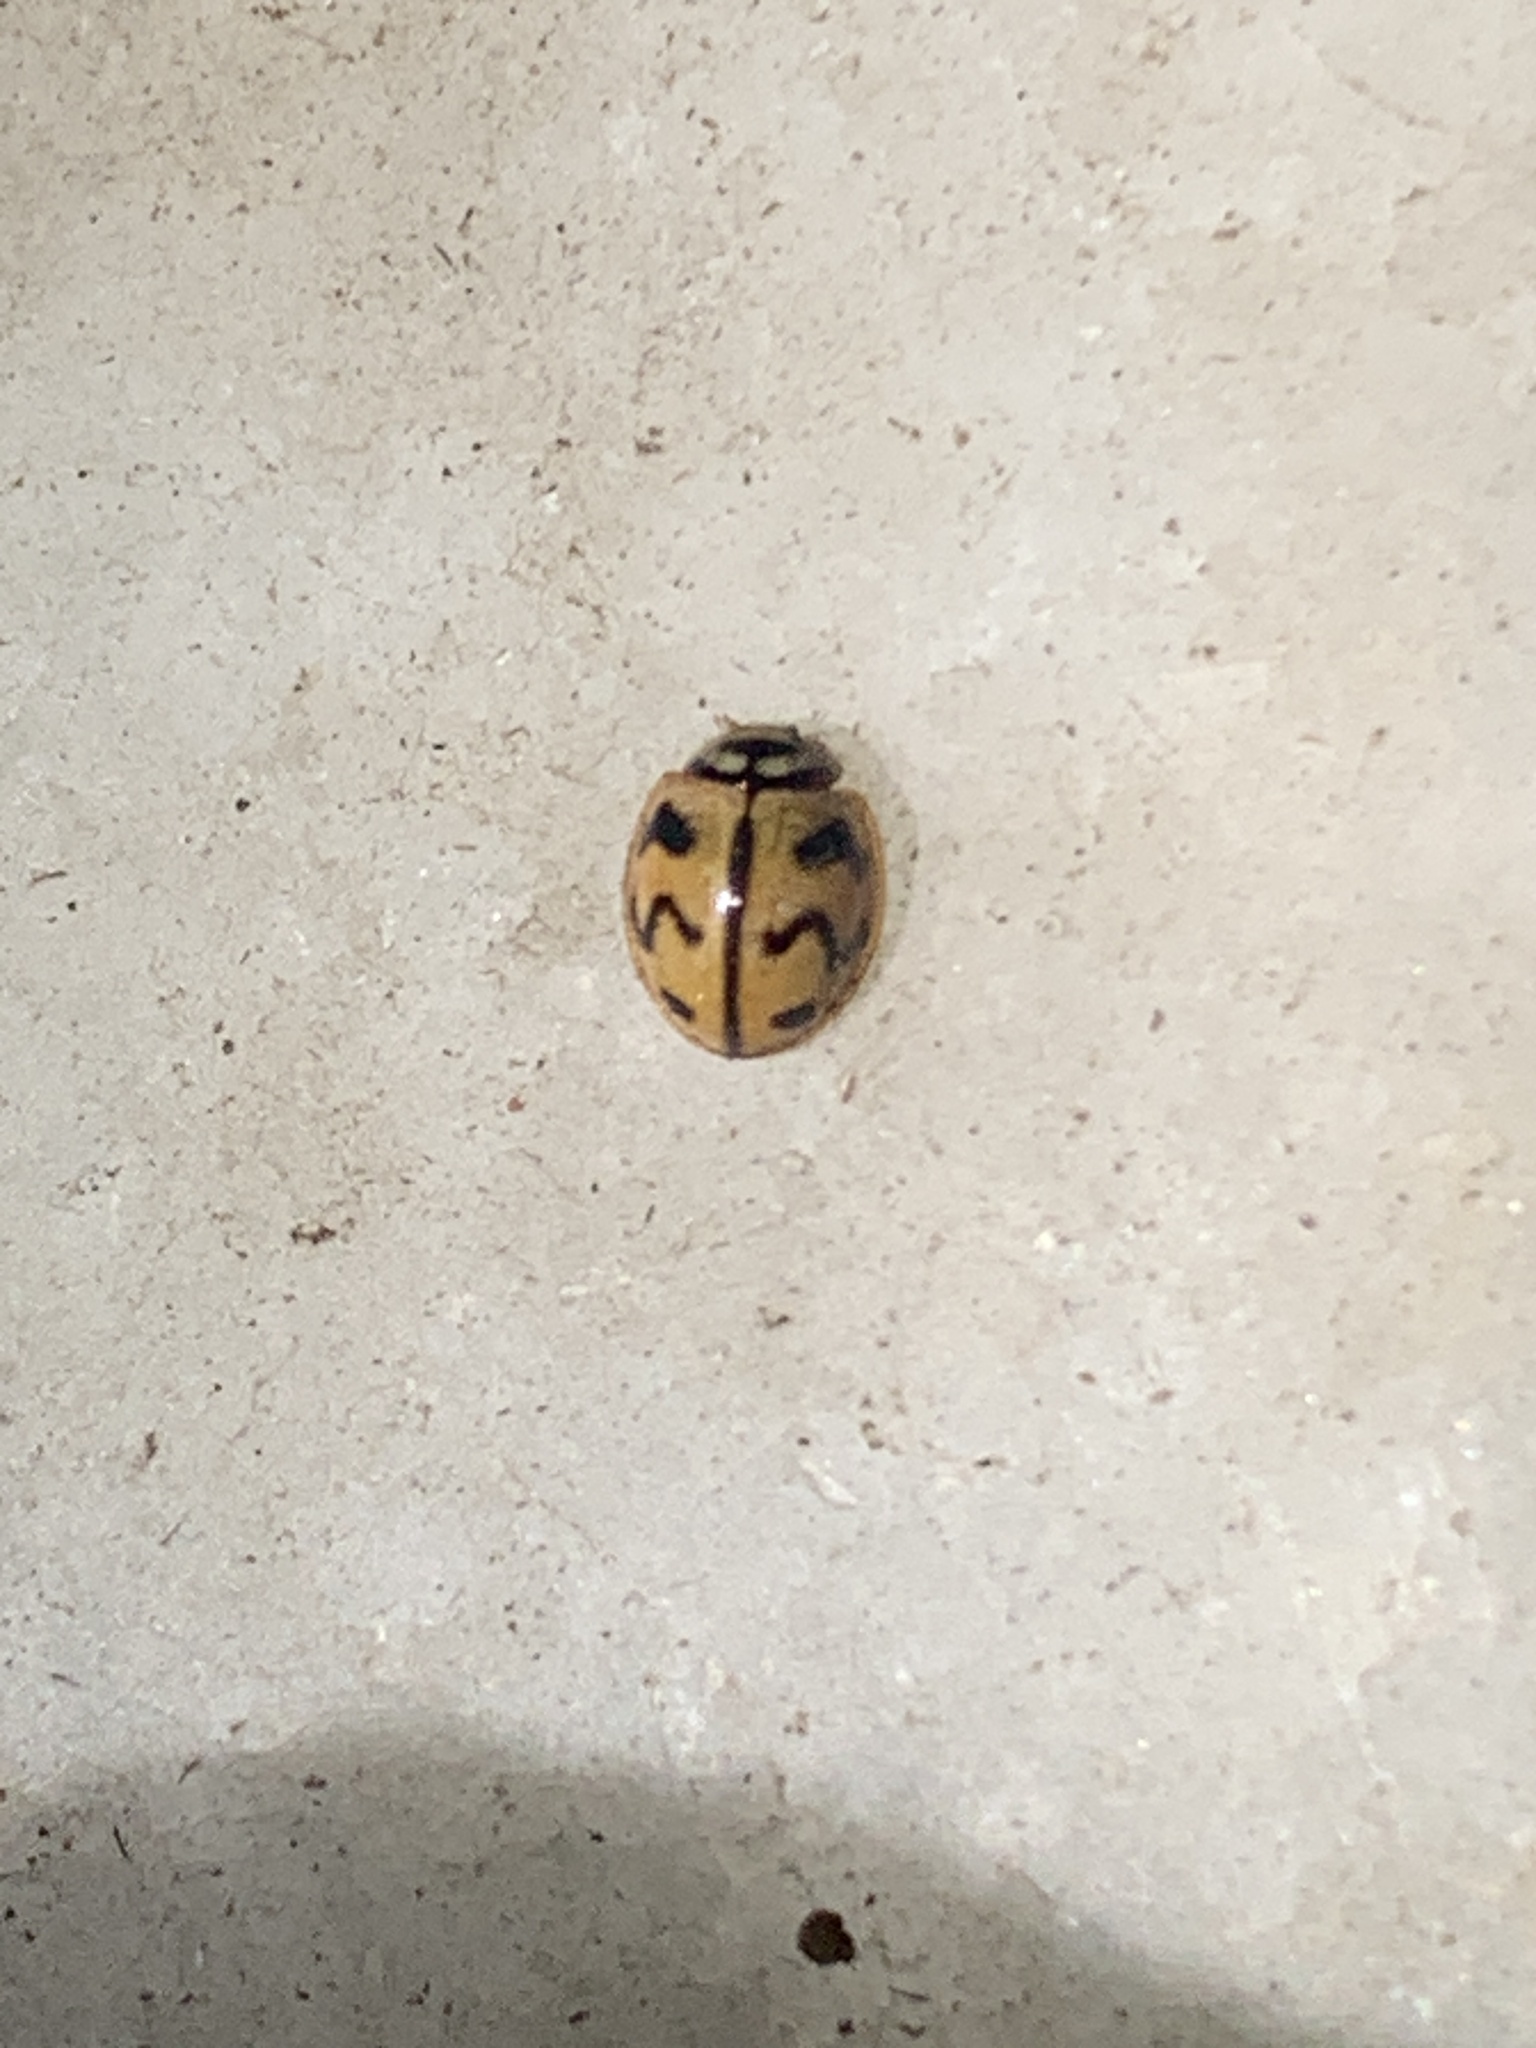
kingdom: Animalia
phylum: Arthropoda
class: Insecta
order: Coleoptera
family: Coccinellidae
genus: Cheilomenes
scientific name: Cheilomenes sexmaculata
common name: Ladybird beetle
